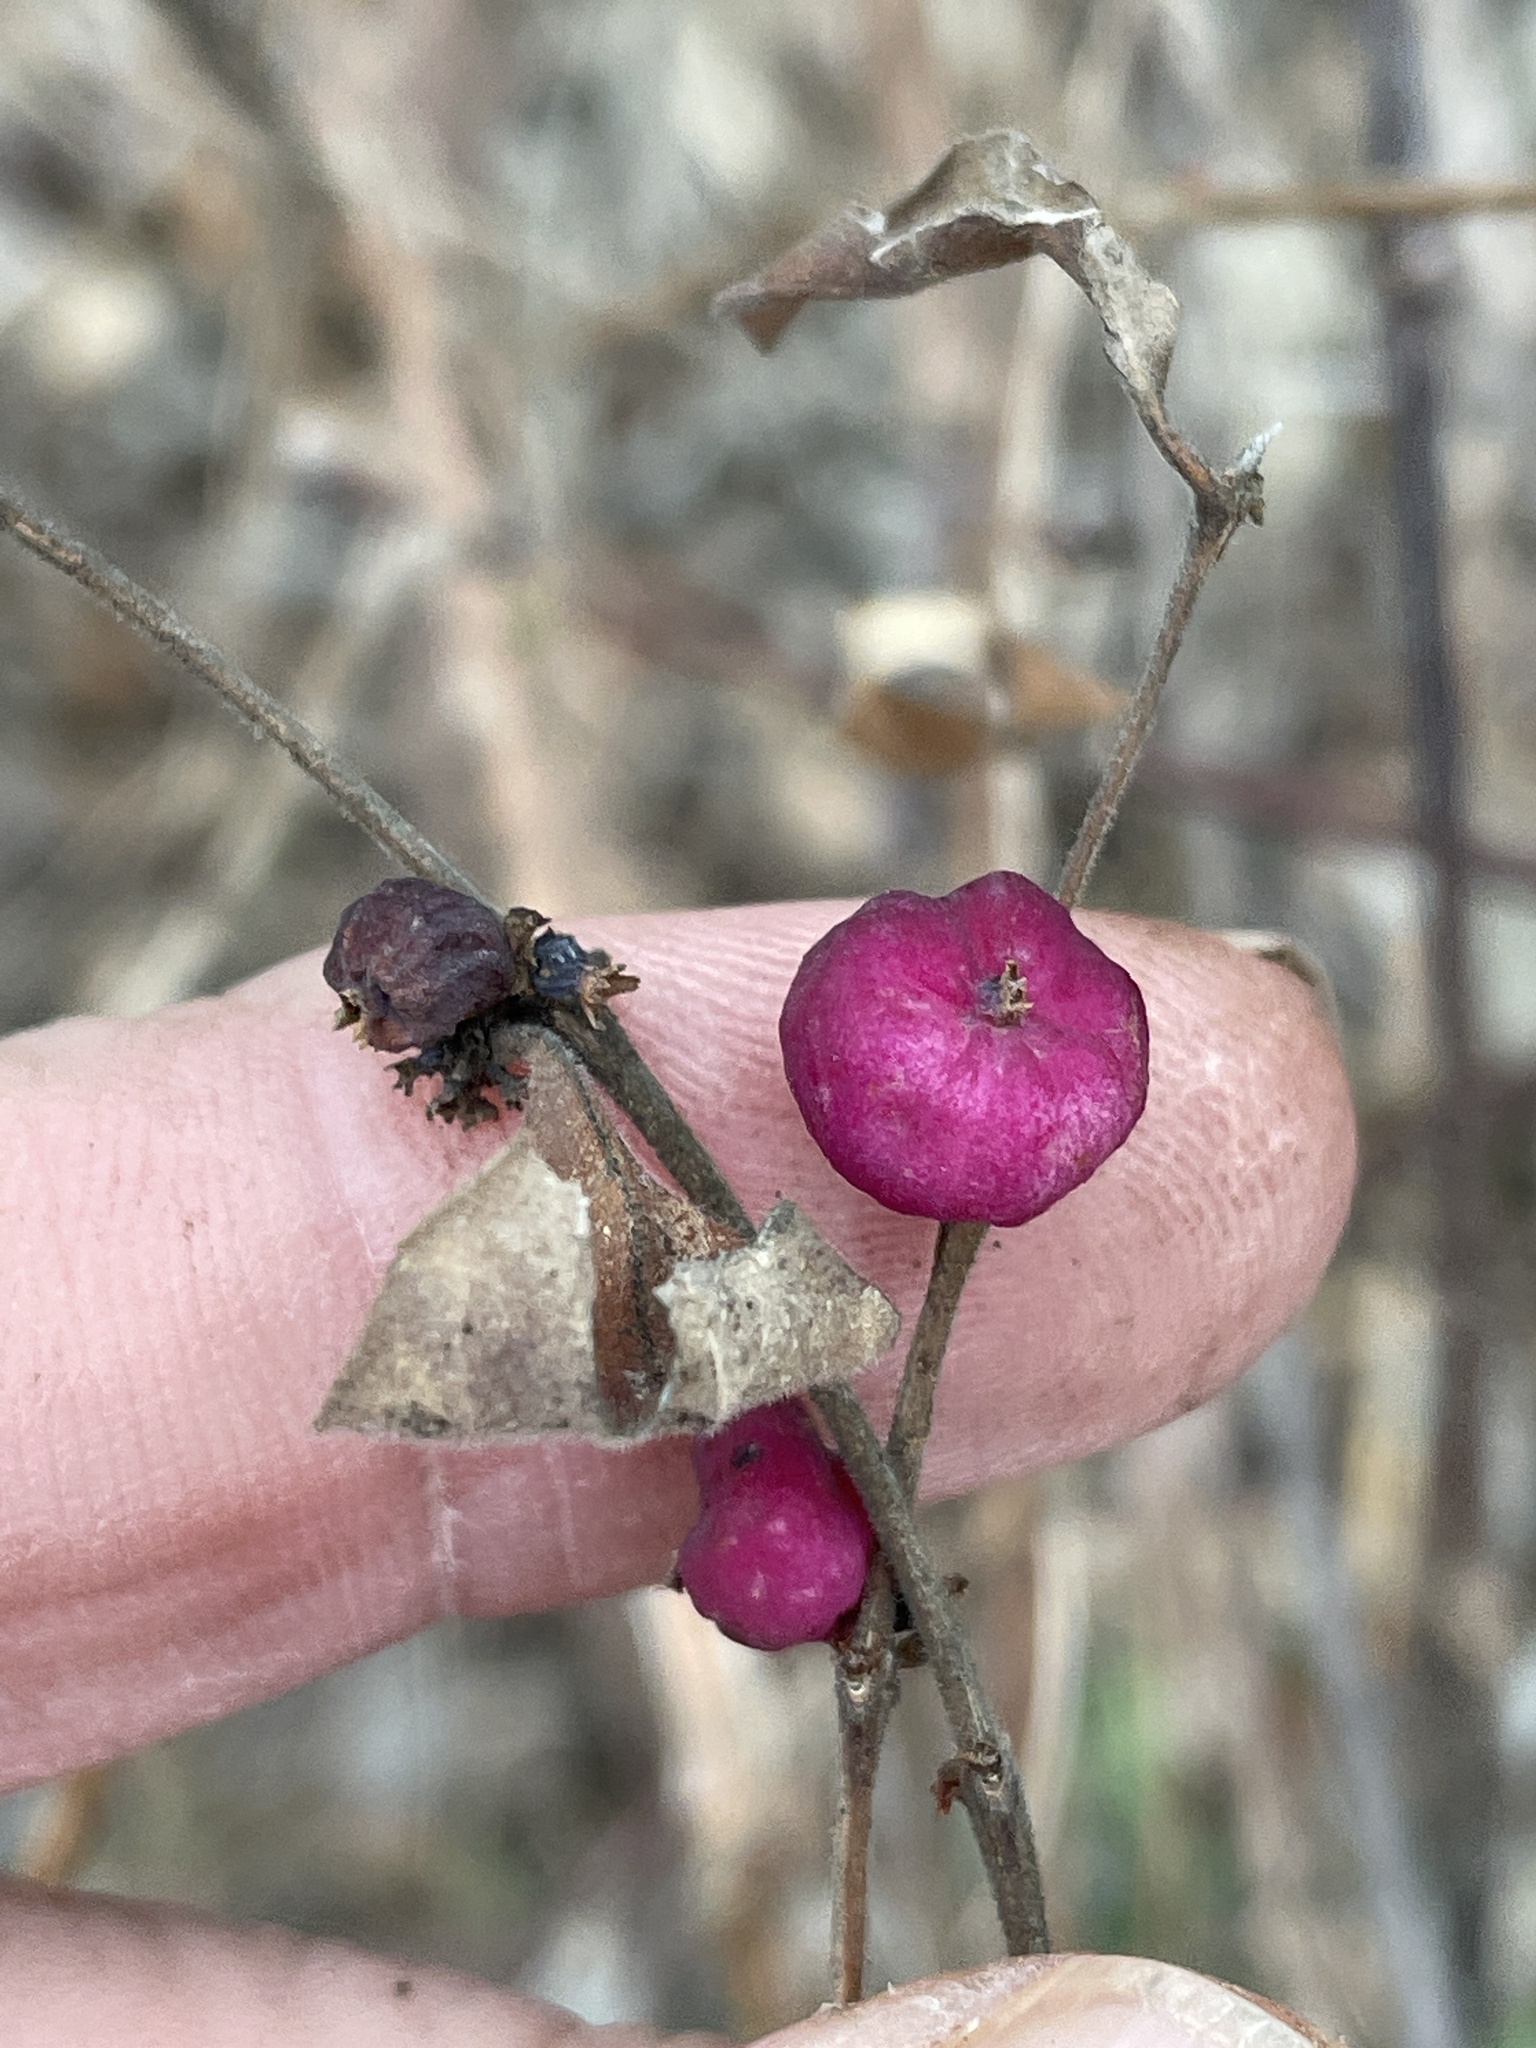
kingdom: Plantae
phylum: Tracheophyta
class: Magnoliopsida
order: Dipsacales
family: Caprifoliaceae
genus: Symphoricarpos
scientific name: Symphoricarpos orbiculatus
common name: Coralberry
